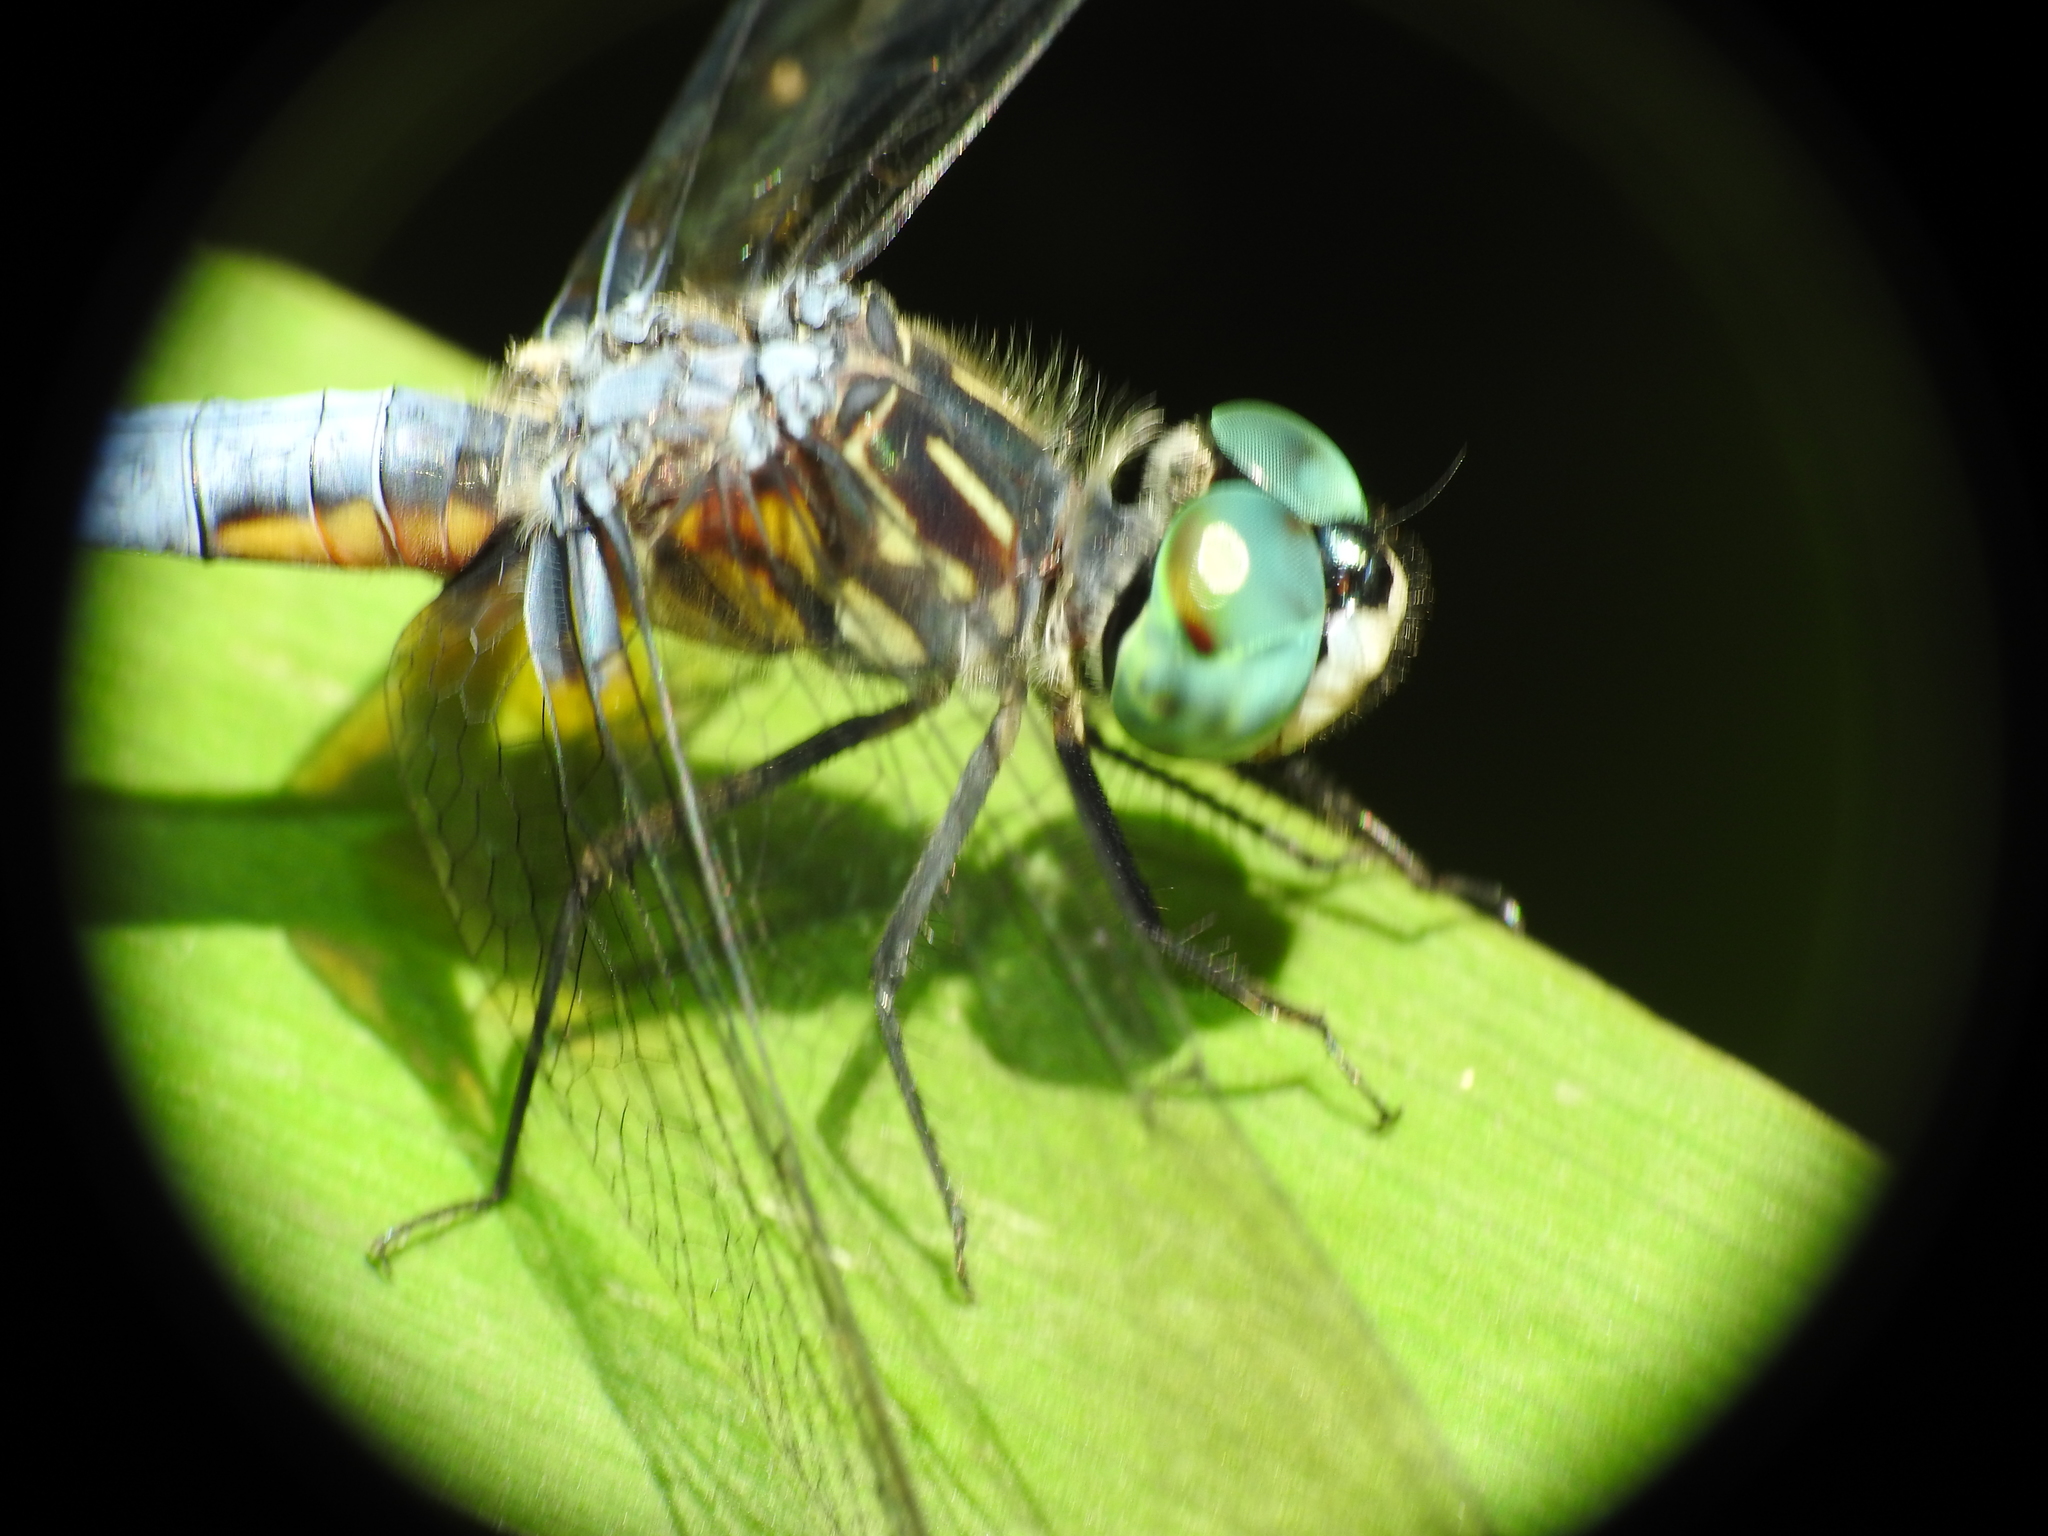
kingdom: Animalia
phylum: Arthropoda
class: Insecta
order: Odonata
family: Libellulidae
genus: Pachydiplax
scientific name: Pachydiplax longipennis
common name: Blue dasher
